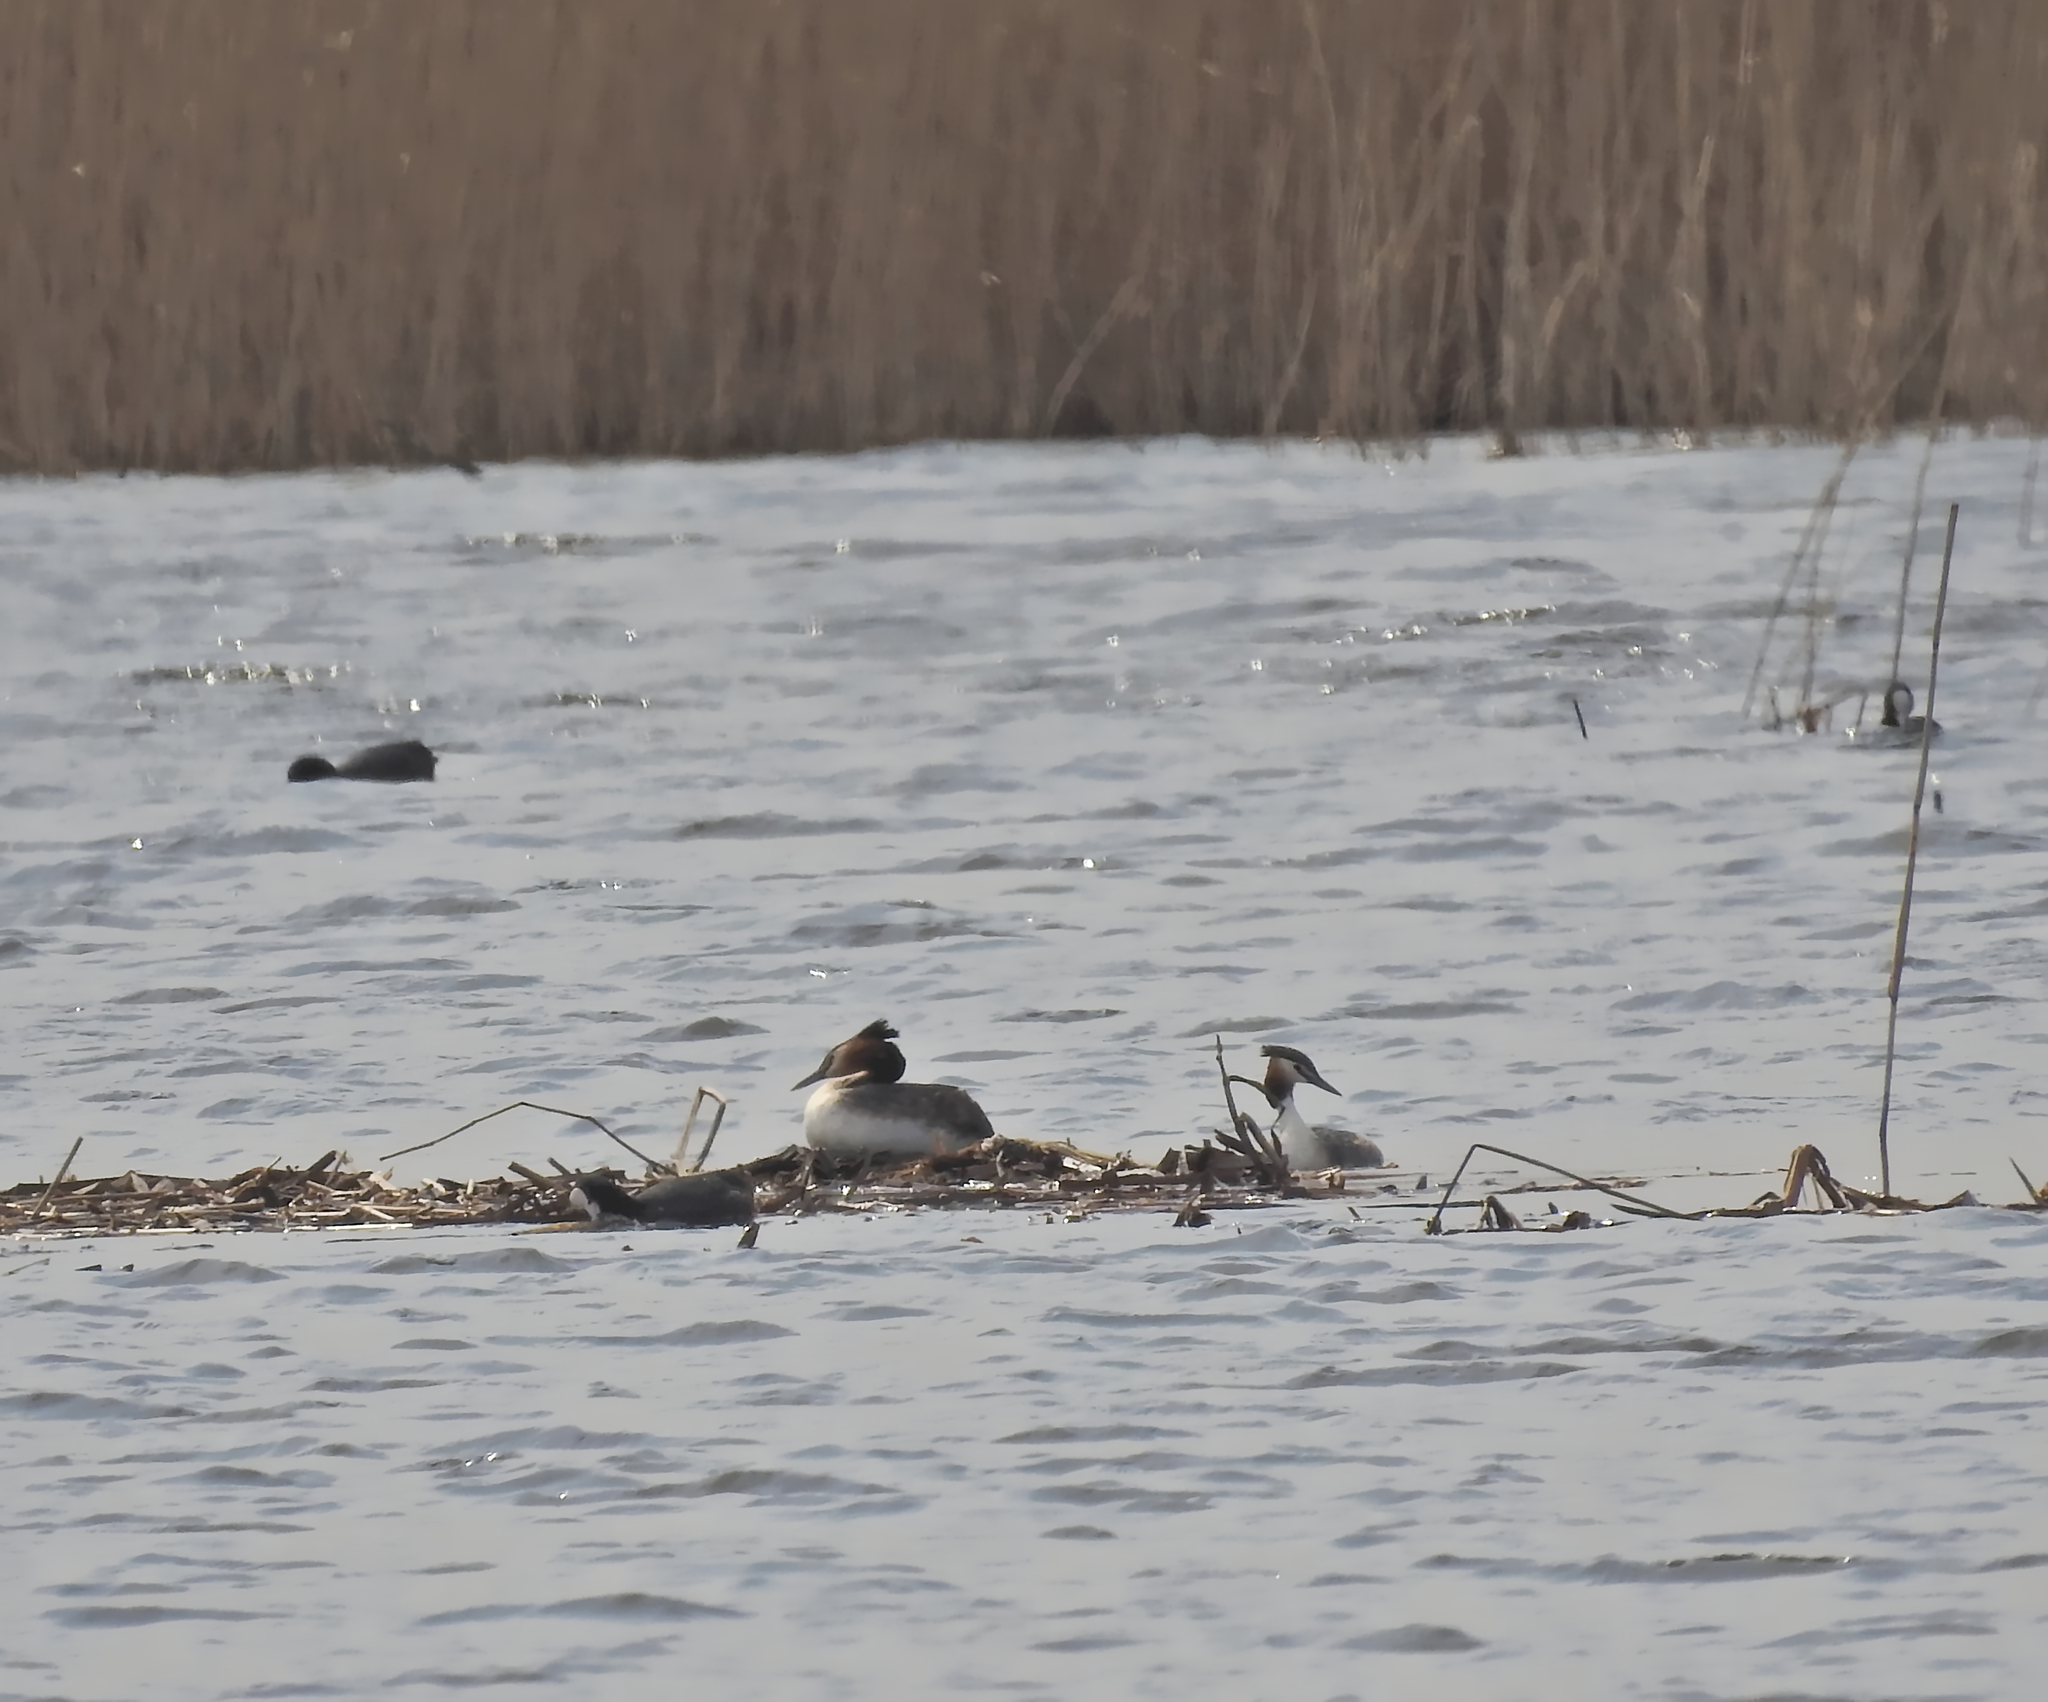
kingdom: Animalia
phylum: Chordata
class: Aves
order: Podicipediformes
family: Podicipedidae
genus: Podiceps
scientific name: Podiceps cristatus
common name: Great crested grebe
